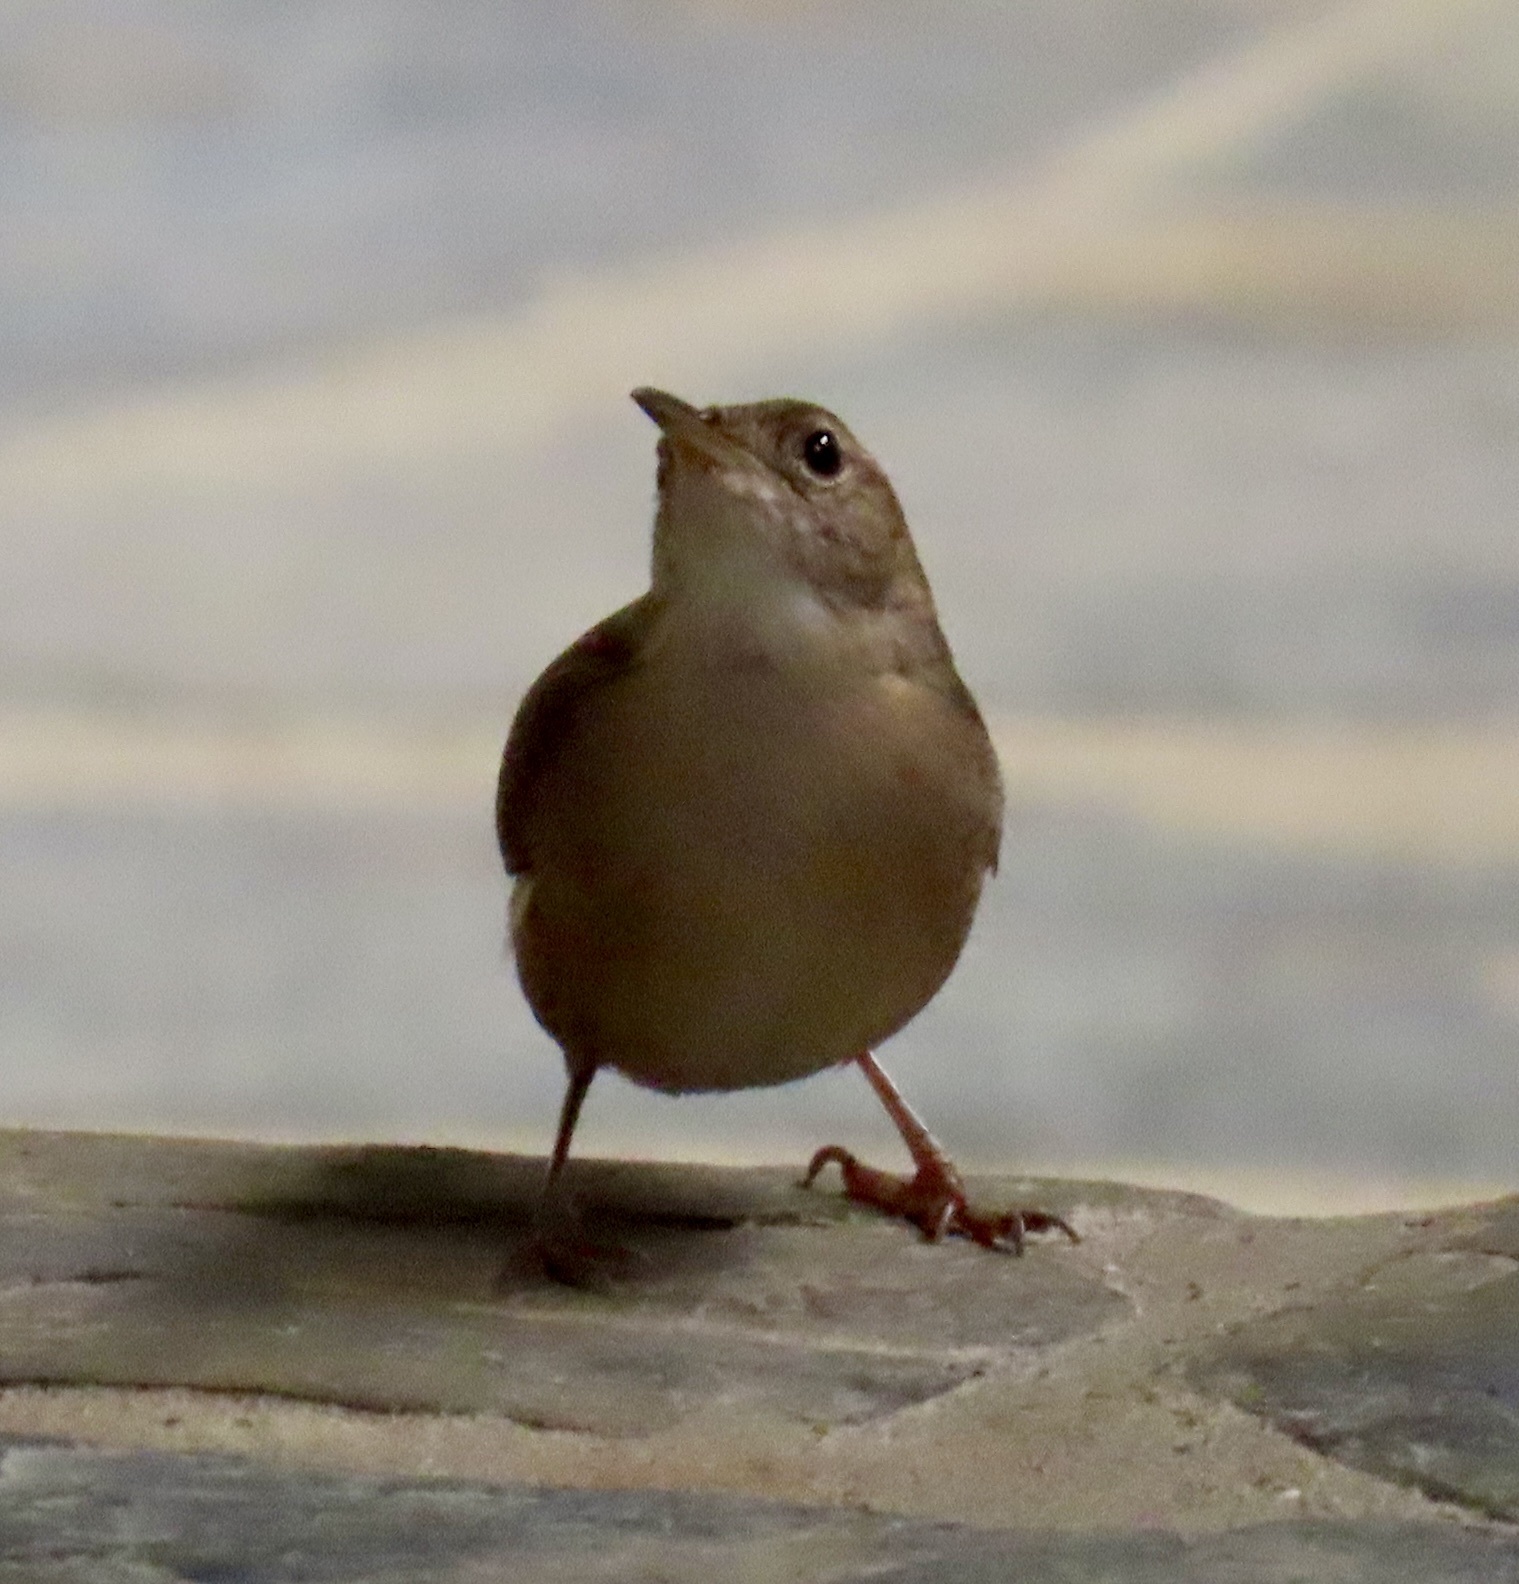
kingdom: Animalia
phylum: Chordata
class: Aves
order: Passeriformes
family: Troglodytidae
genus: Troglodytes
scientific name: Troglodytes aedon
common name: House wren
